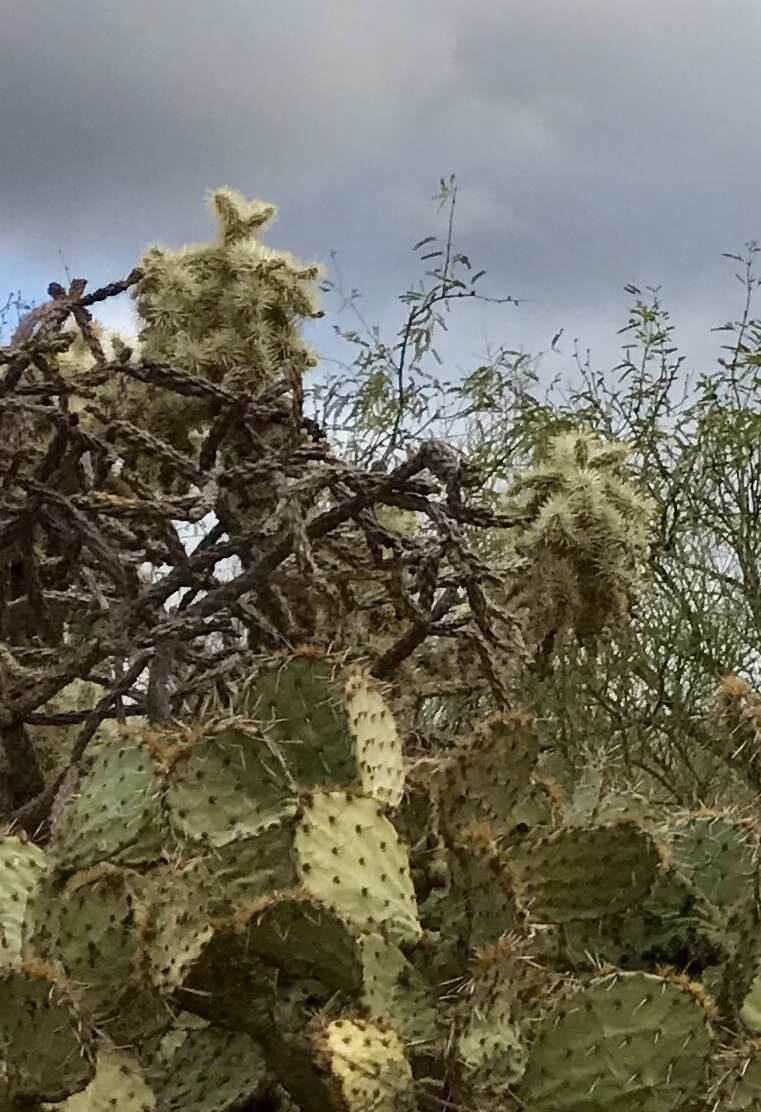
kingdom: Plantae
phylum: Tracheophyta
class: Magnoliopsida
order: Caryophyllales
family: Cactaceae
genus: Cylindropuntia
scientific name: Cylindropuntia fulgida
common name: Jumping cholla
